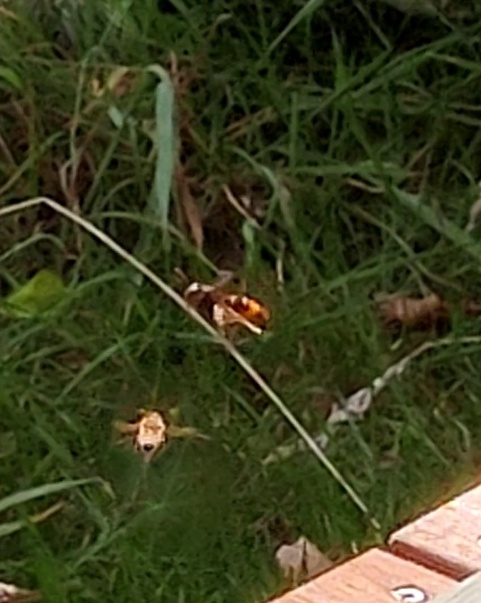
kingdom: Animalia
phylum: Arthropoda
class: Insecta
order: Hymenoptera
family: Vespidae
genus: Vespa
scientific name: Vespa velutina
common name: Asian hornet
